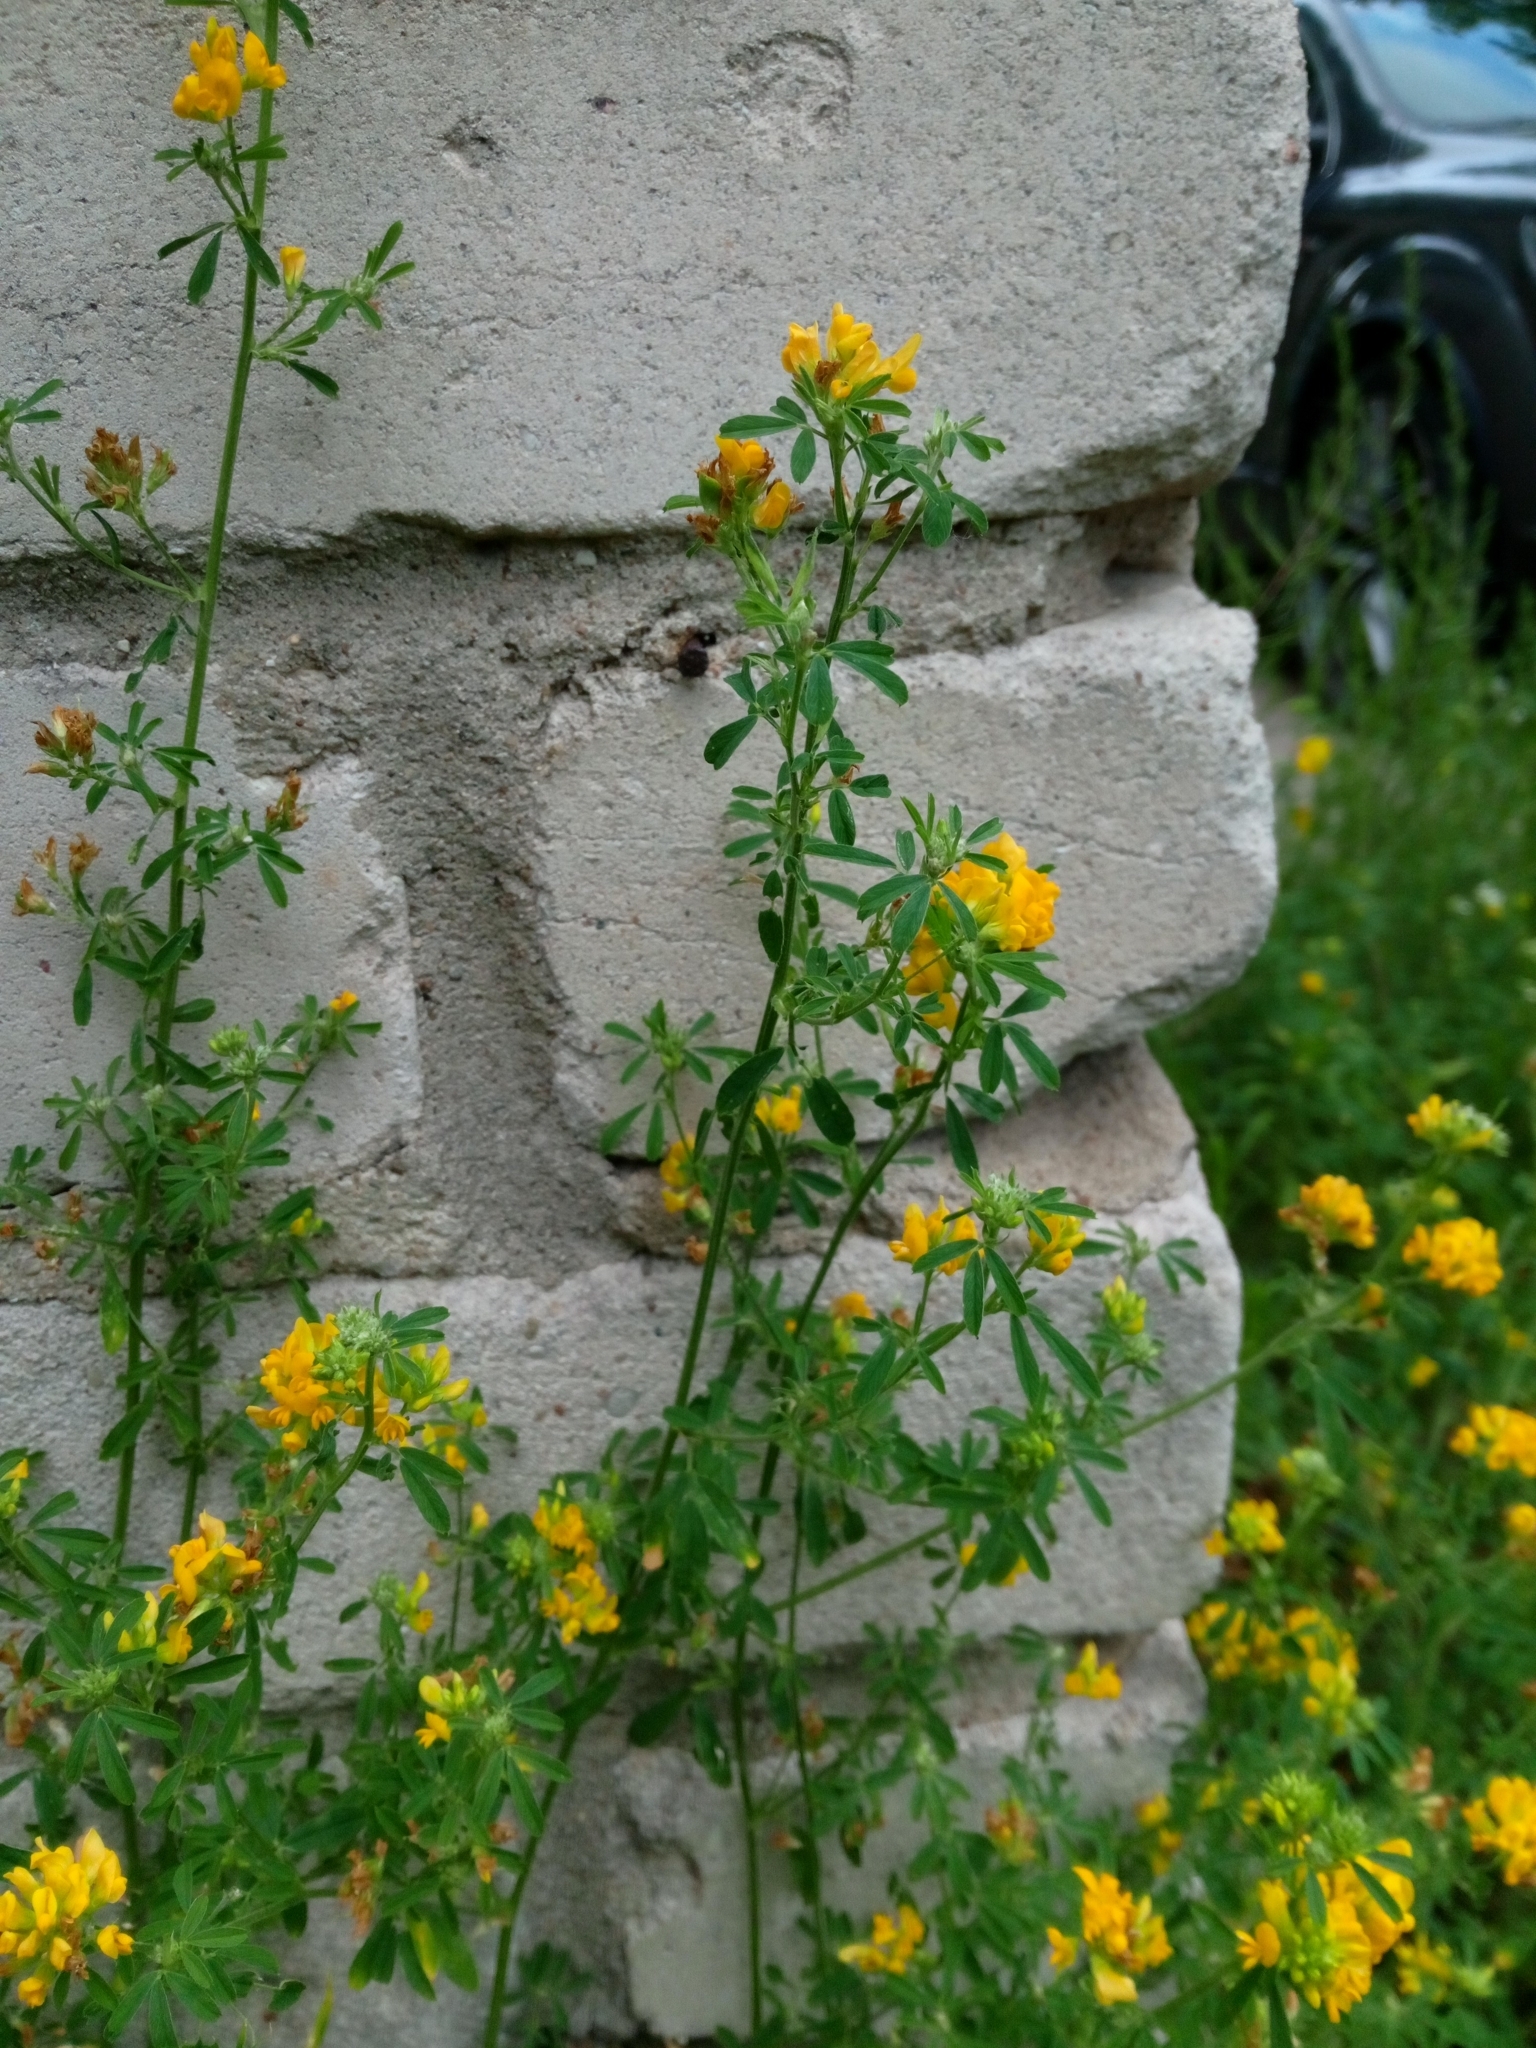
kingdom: Plantae
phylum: Tracheophyta
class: Magnoliopsida
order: Fabales
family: Fabaceae
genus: Medicago
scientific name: Medicago falcata
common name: Sickle medick
